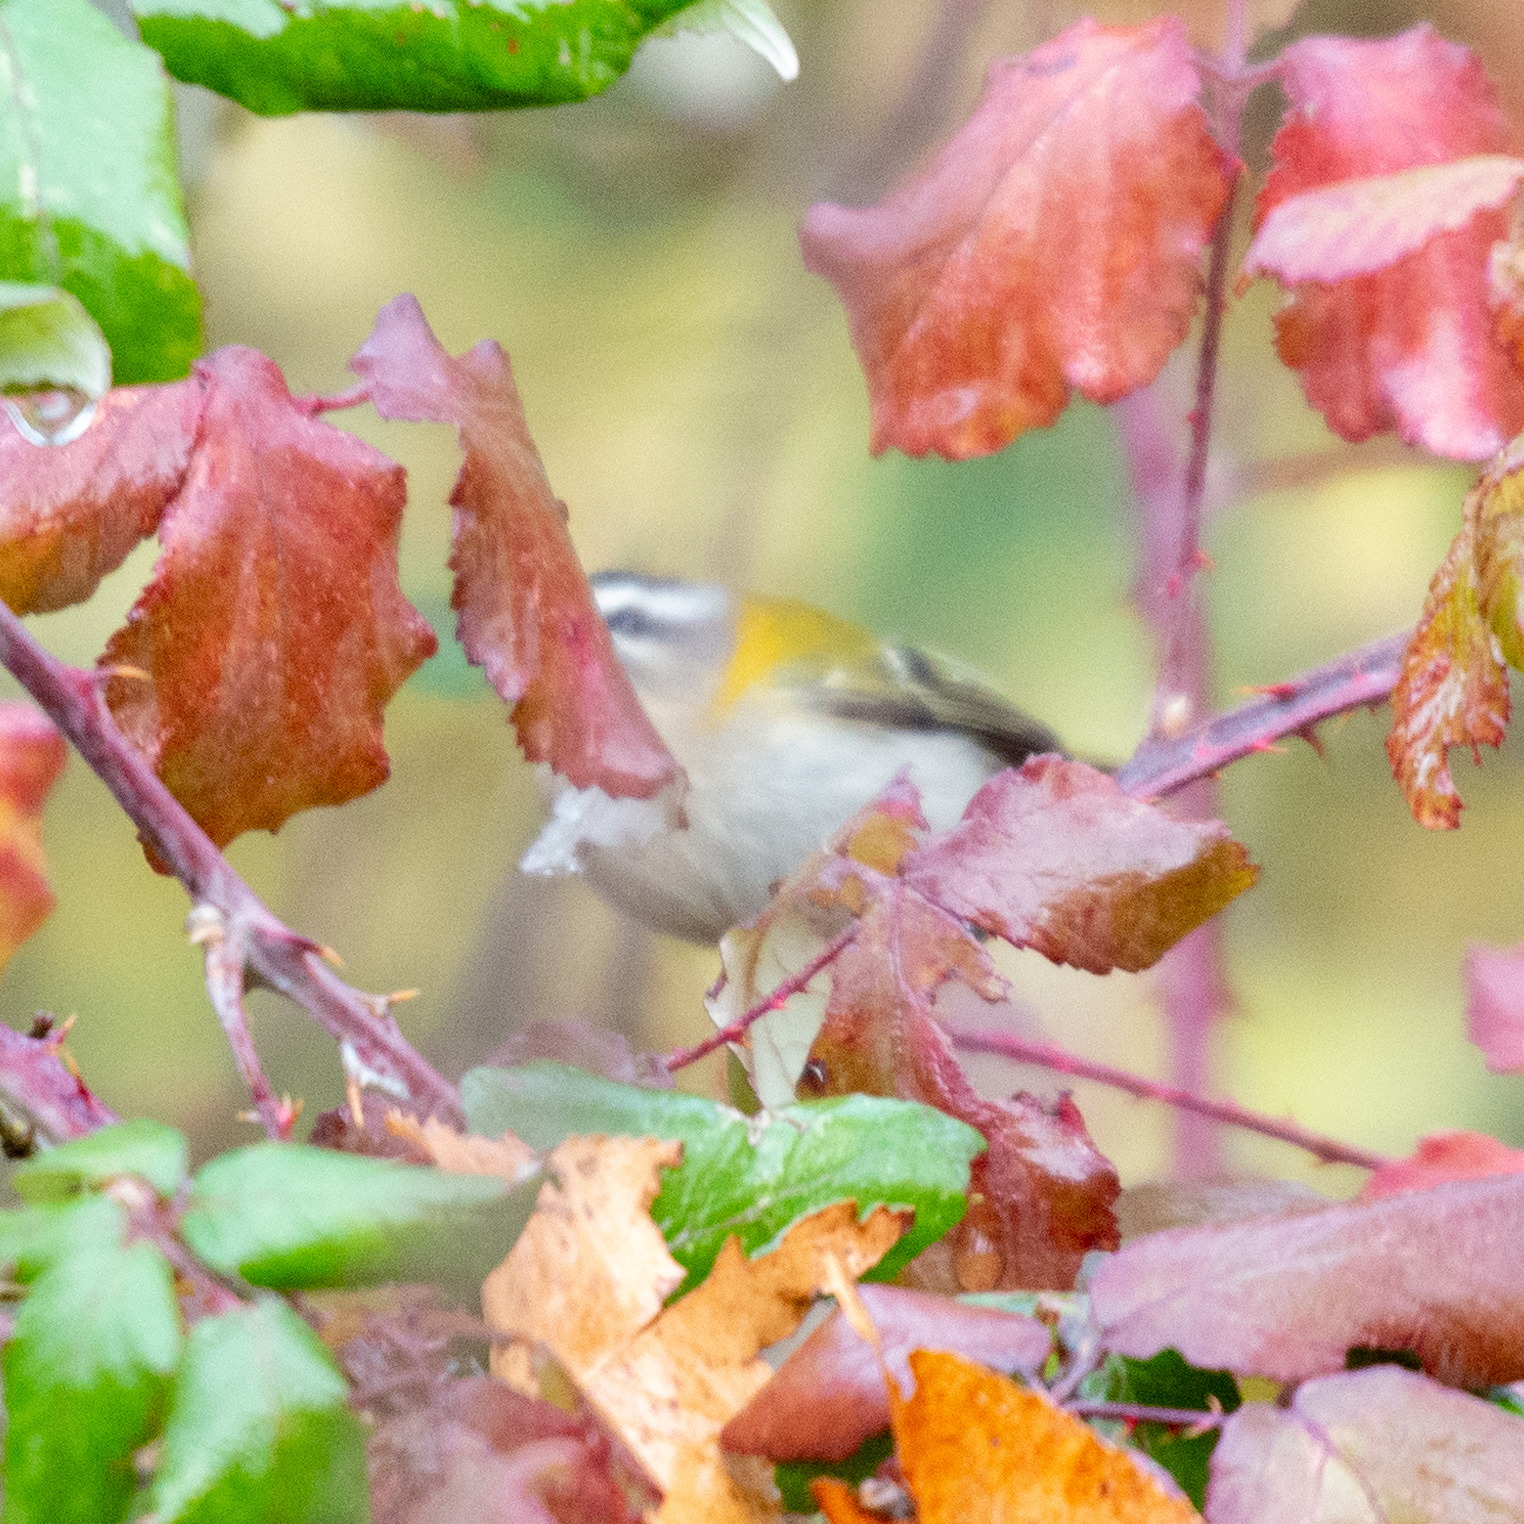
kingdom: Animalia
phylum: Chordata
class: Aves
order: Passeriformes
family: Regulidae
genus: Regulus
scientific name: Regulus ignicapilla
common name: Firecrest
